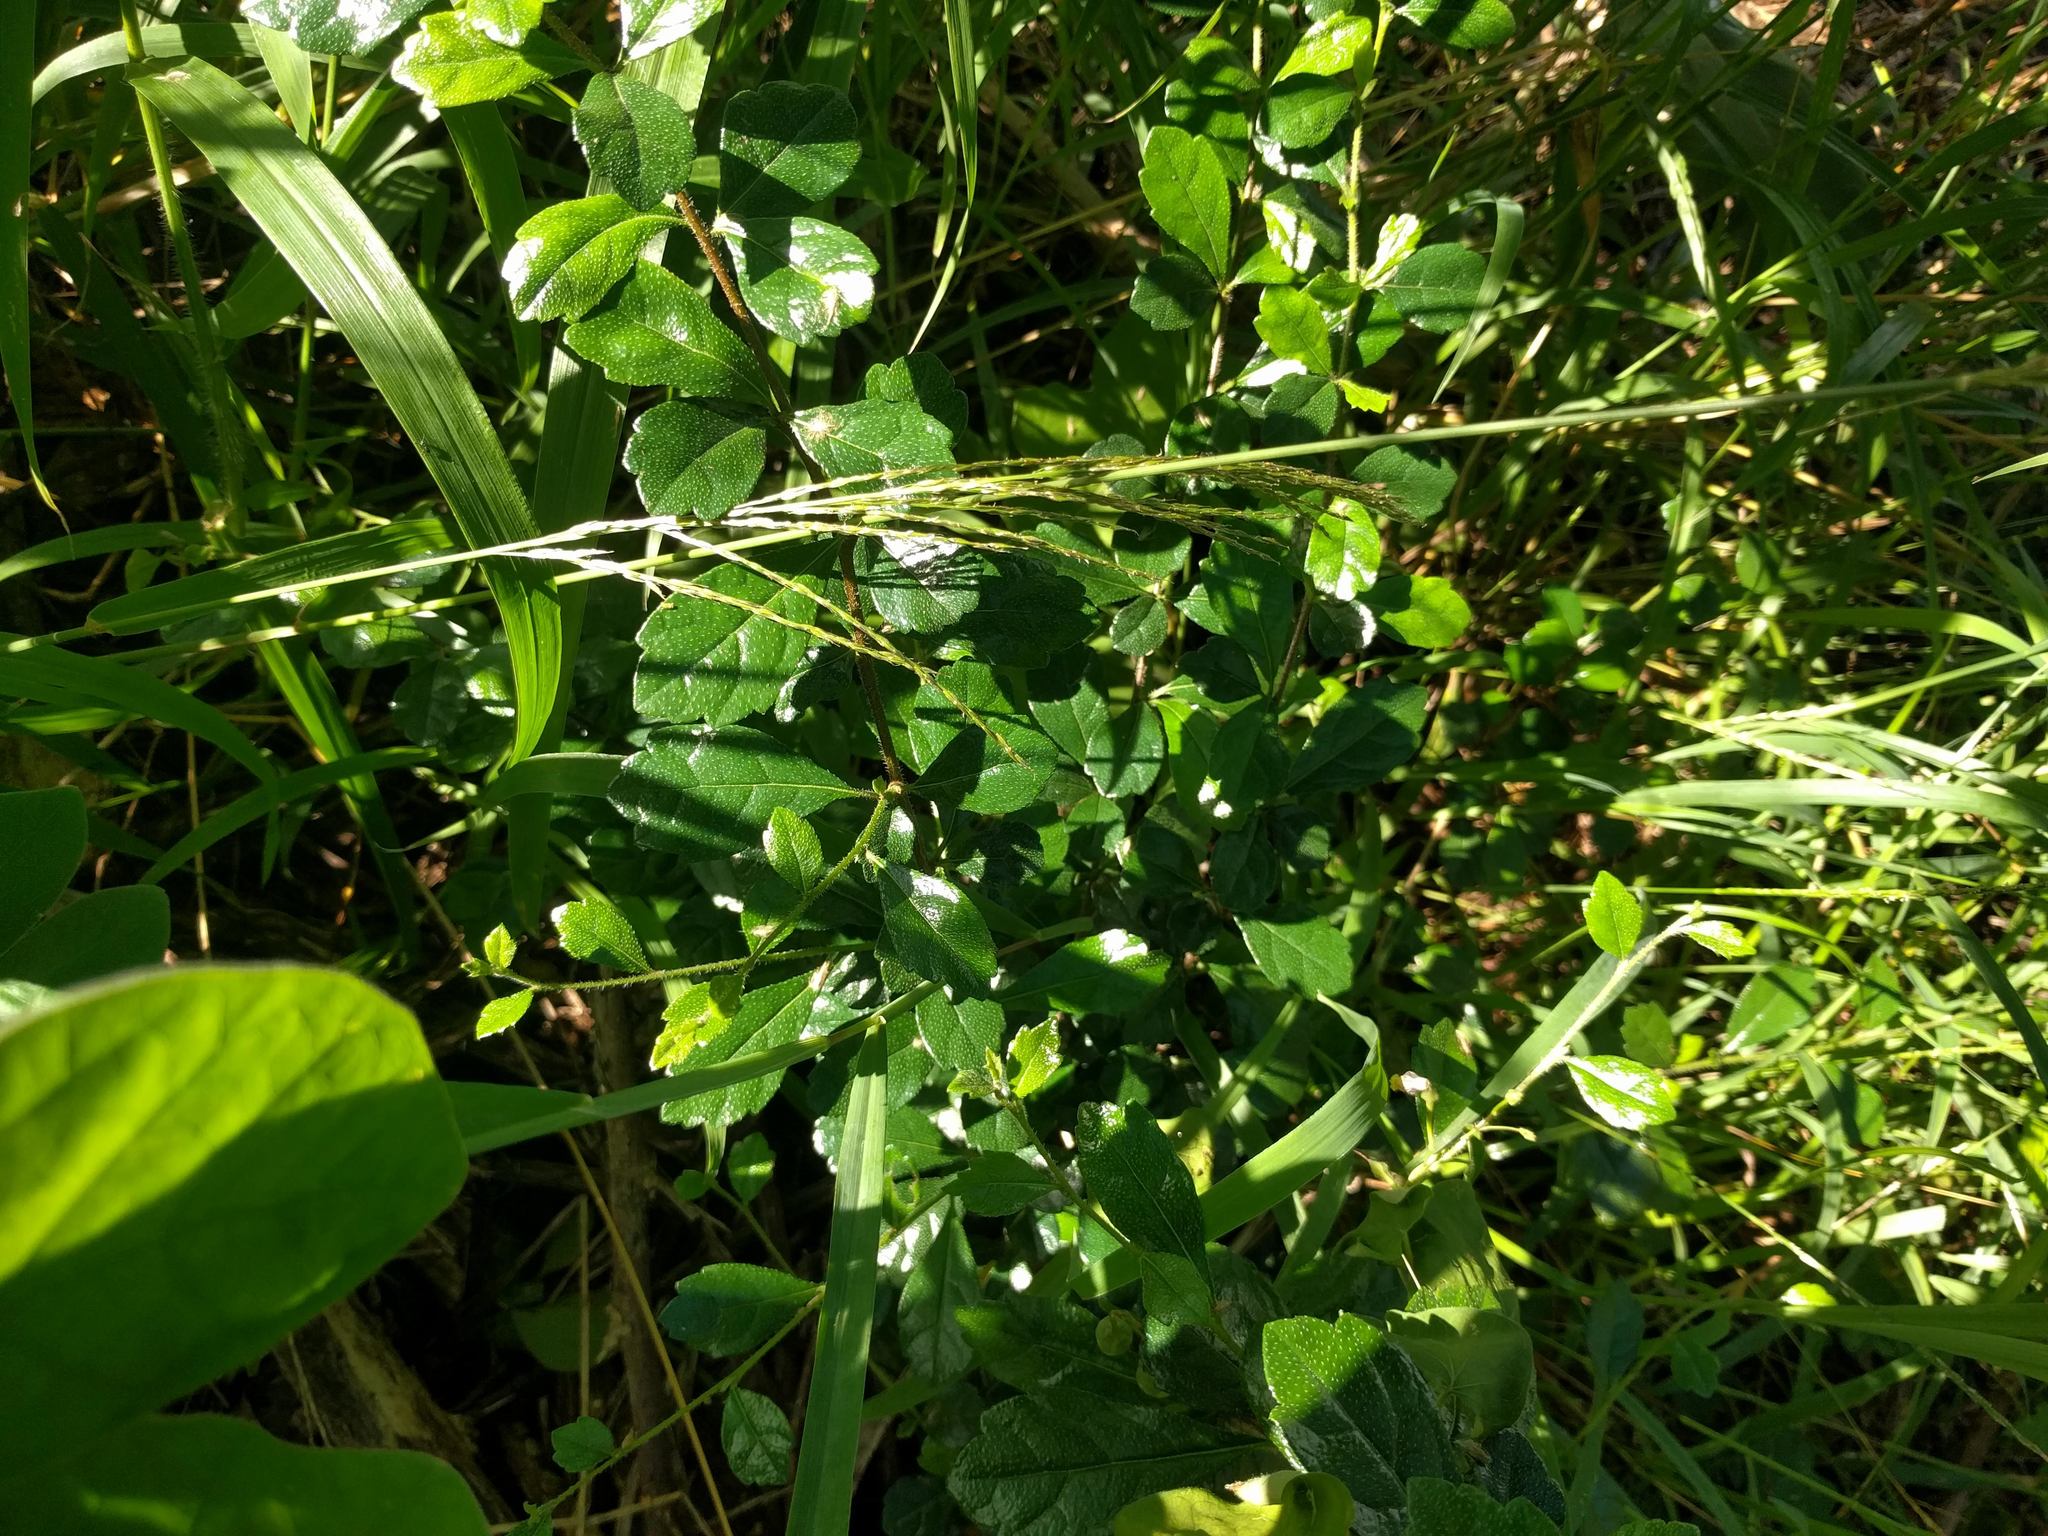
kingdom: Plantae
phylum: Tracheophyta
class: Magnoliopsida
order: Boraginales
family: Ehretiaceae
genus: Ehretia
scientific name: Ehretia microphylla
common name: Fukien-tea
